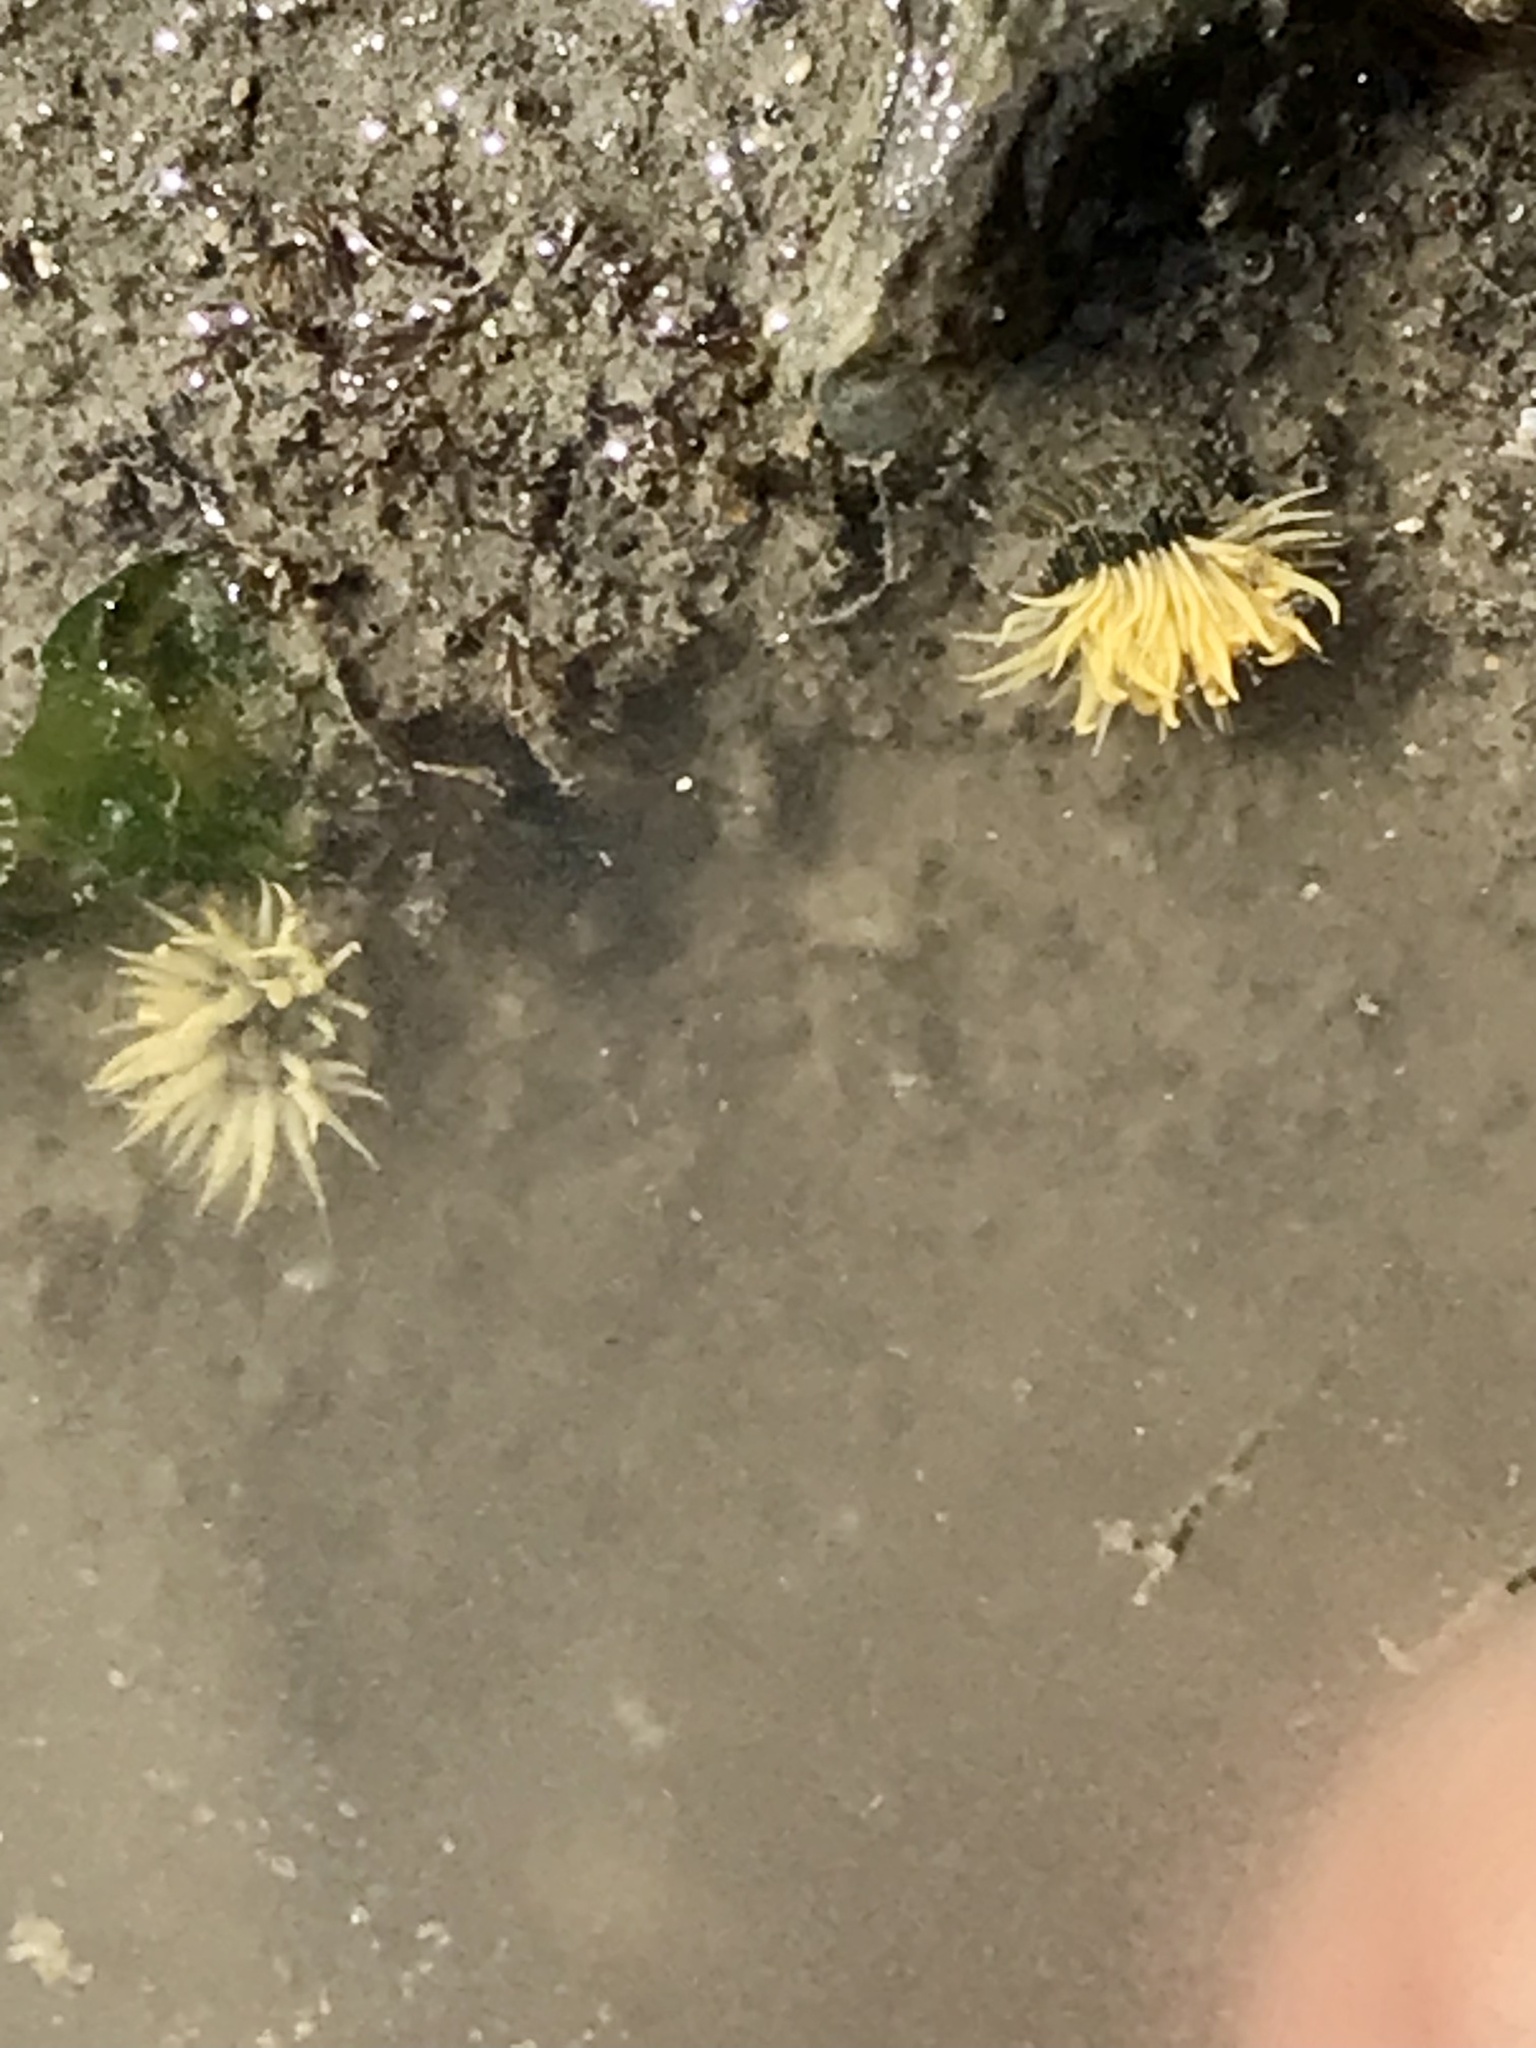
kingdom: Animalia
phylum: Cnidaria
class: Anthozoa
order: Actiniaria
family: Diadumenidae
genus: Diadumene
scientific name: Diadumene lineata
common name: Orange-striped anemone
